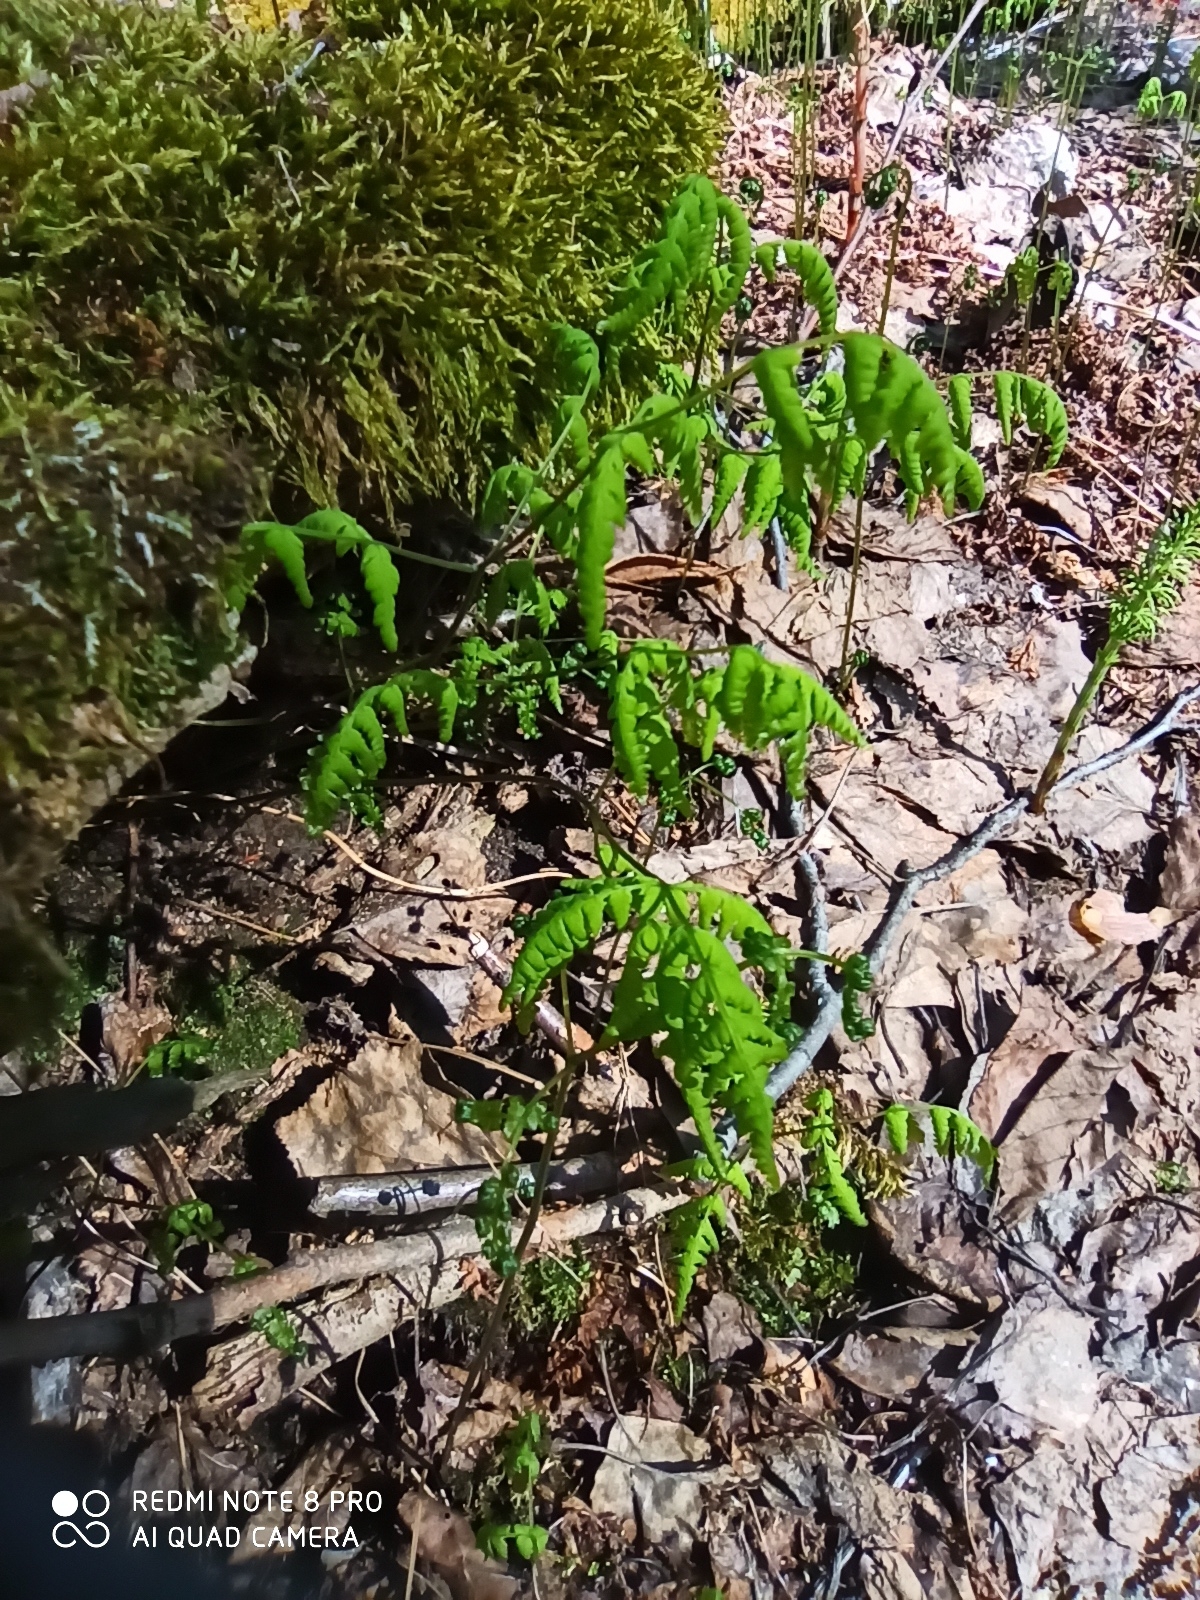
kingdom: Plantae
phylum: Tracheophyta
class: Polypodiopsida
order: Polypodiales
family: Cystopteridaceae
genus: Gymnocarpium
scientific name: Gymnocarpium dryopteris
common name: Oak fern
